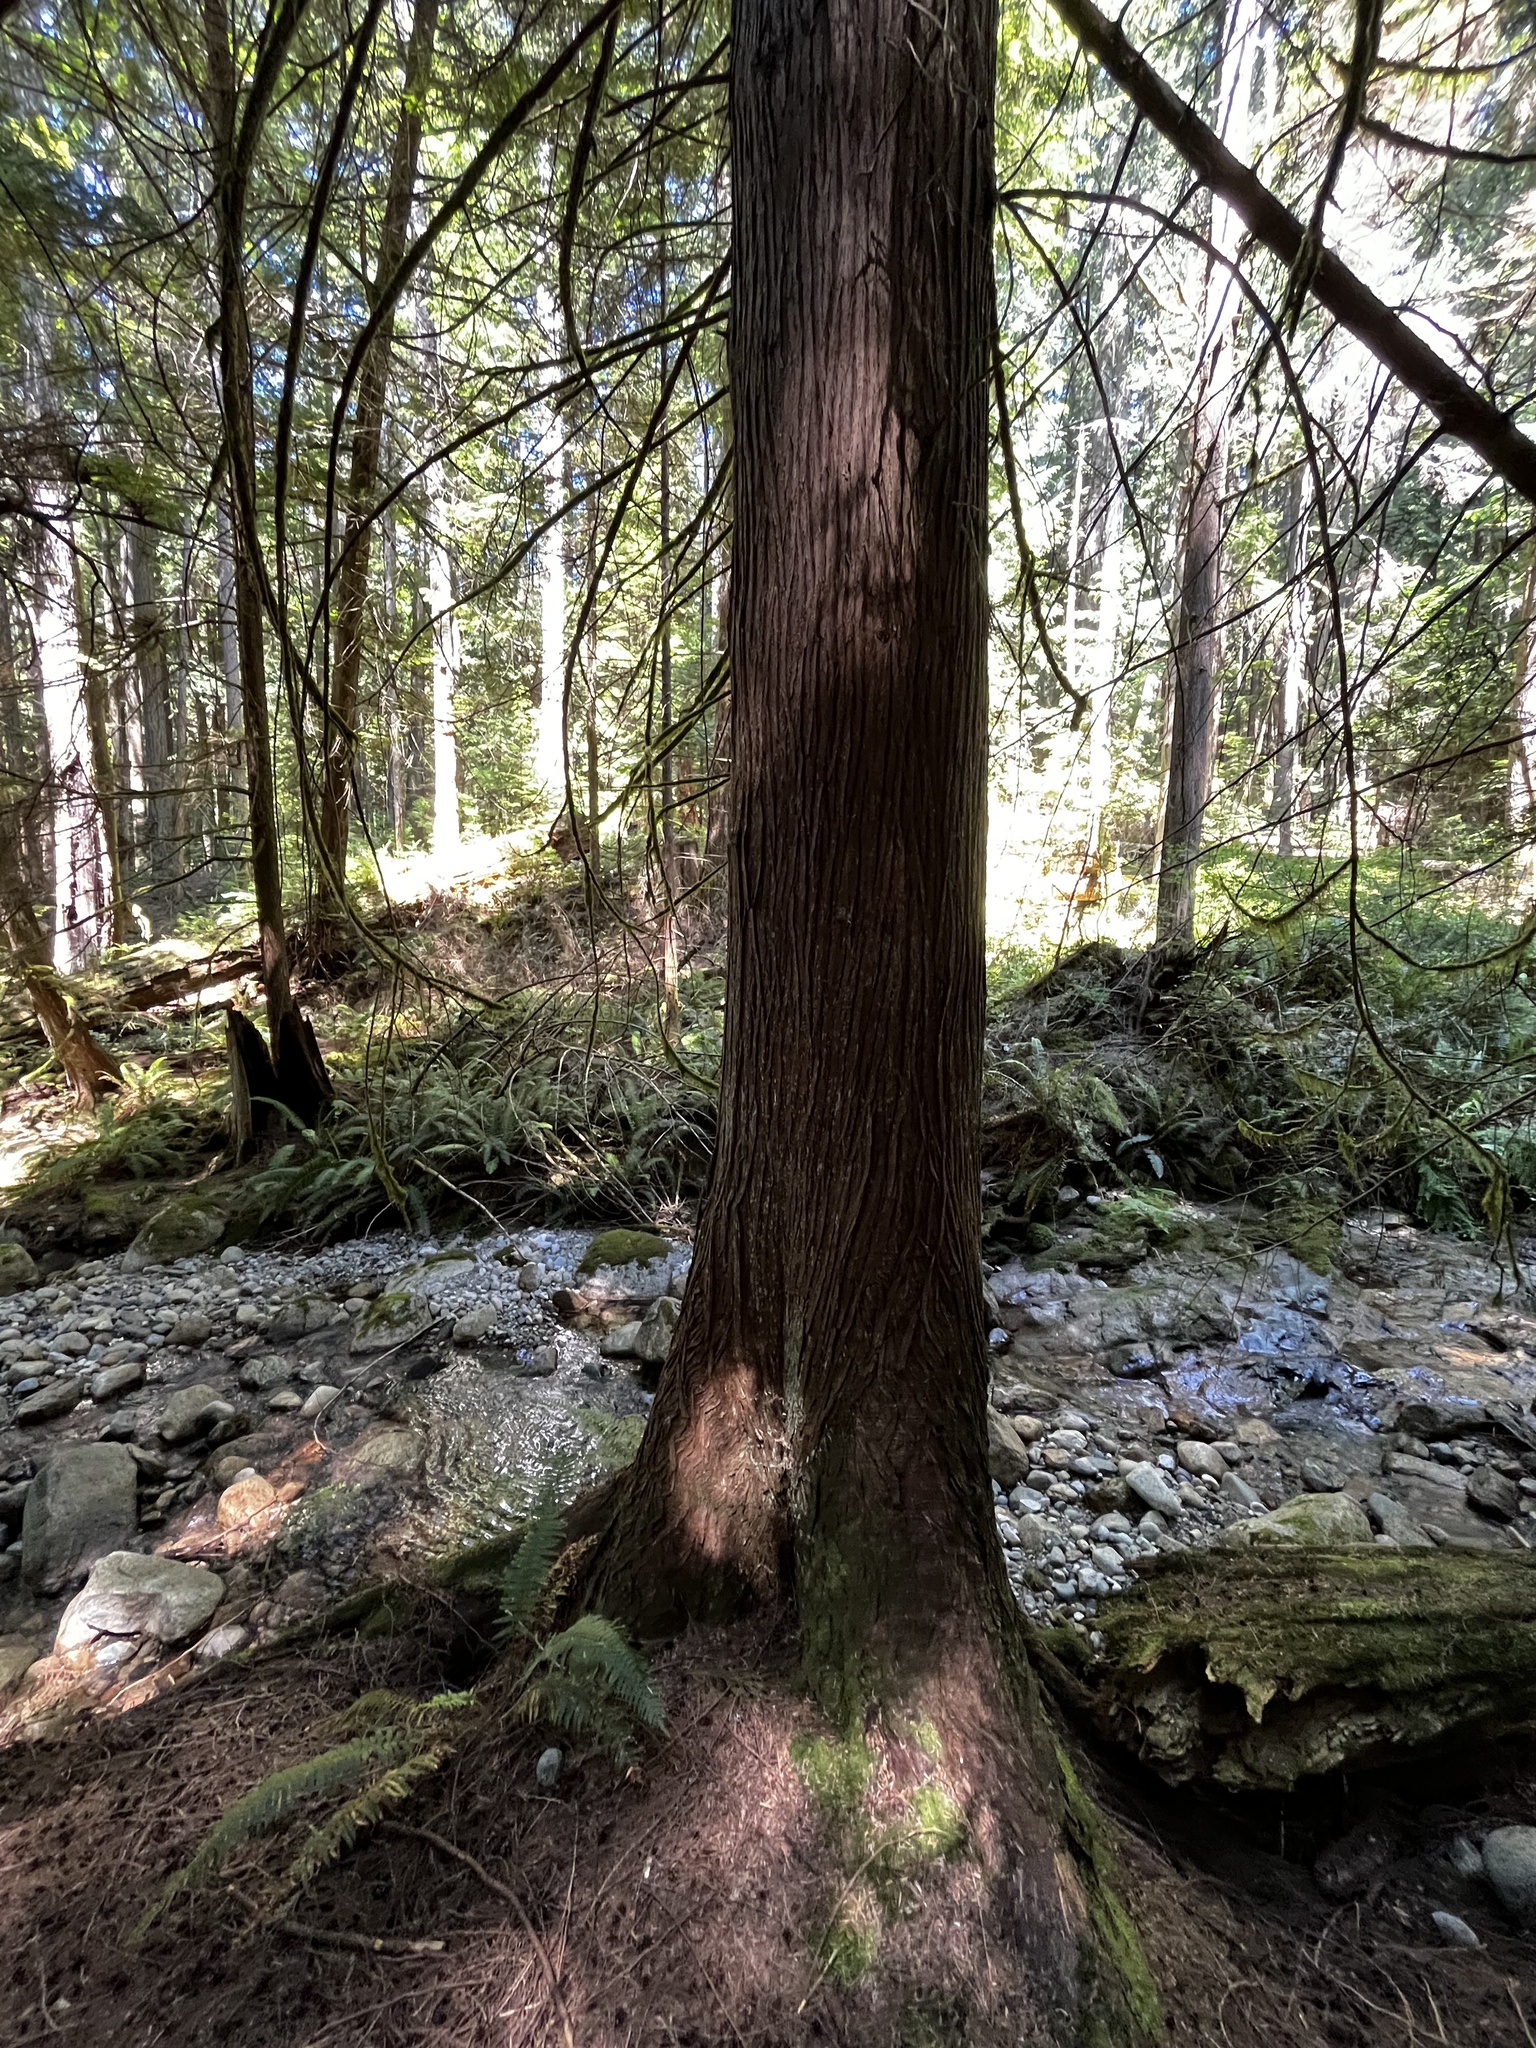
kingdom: Plantae
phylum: Tracheophyta
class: Pinopsida
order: Pinales
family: Cupressaceae
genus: Thuja
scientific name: Thuja plicata
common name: Western red-cedar
